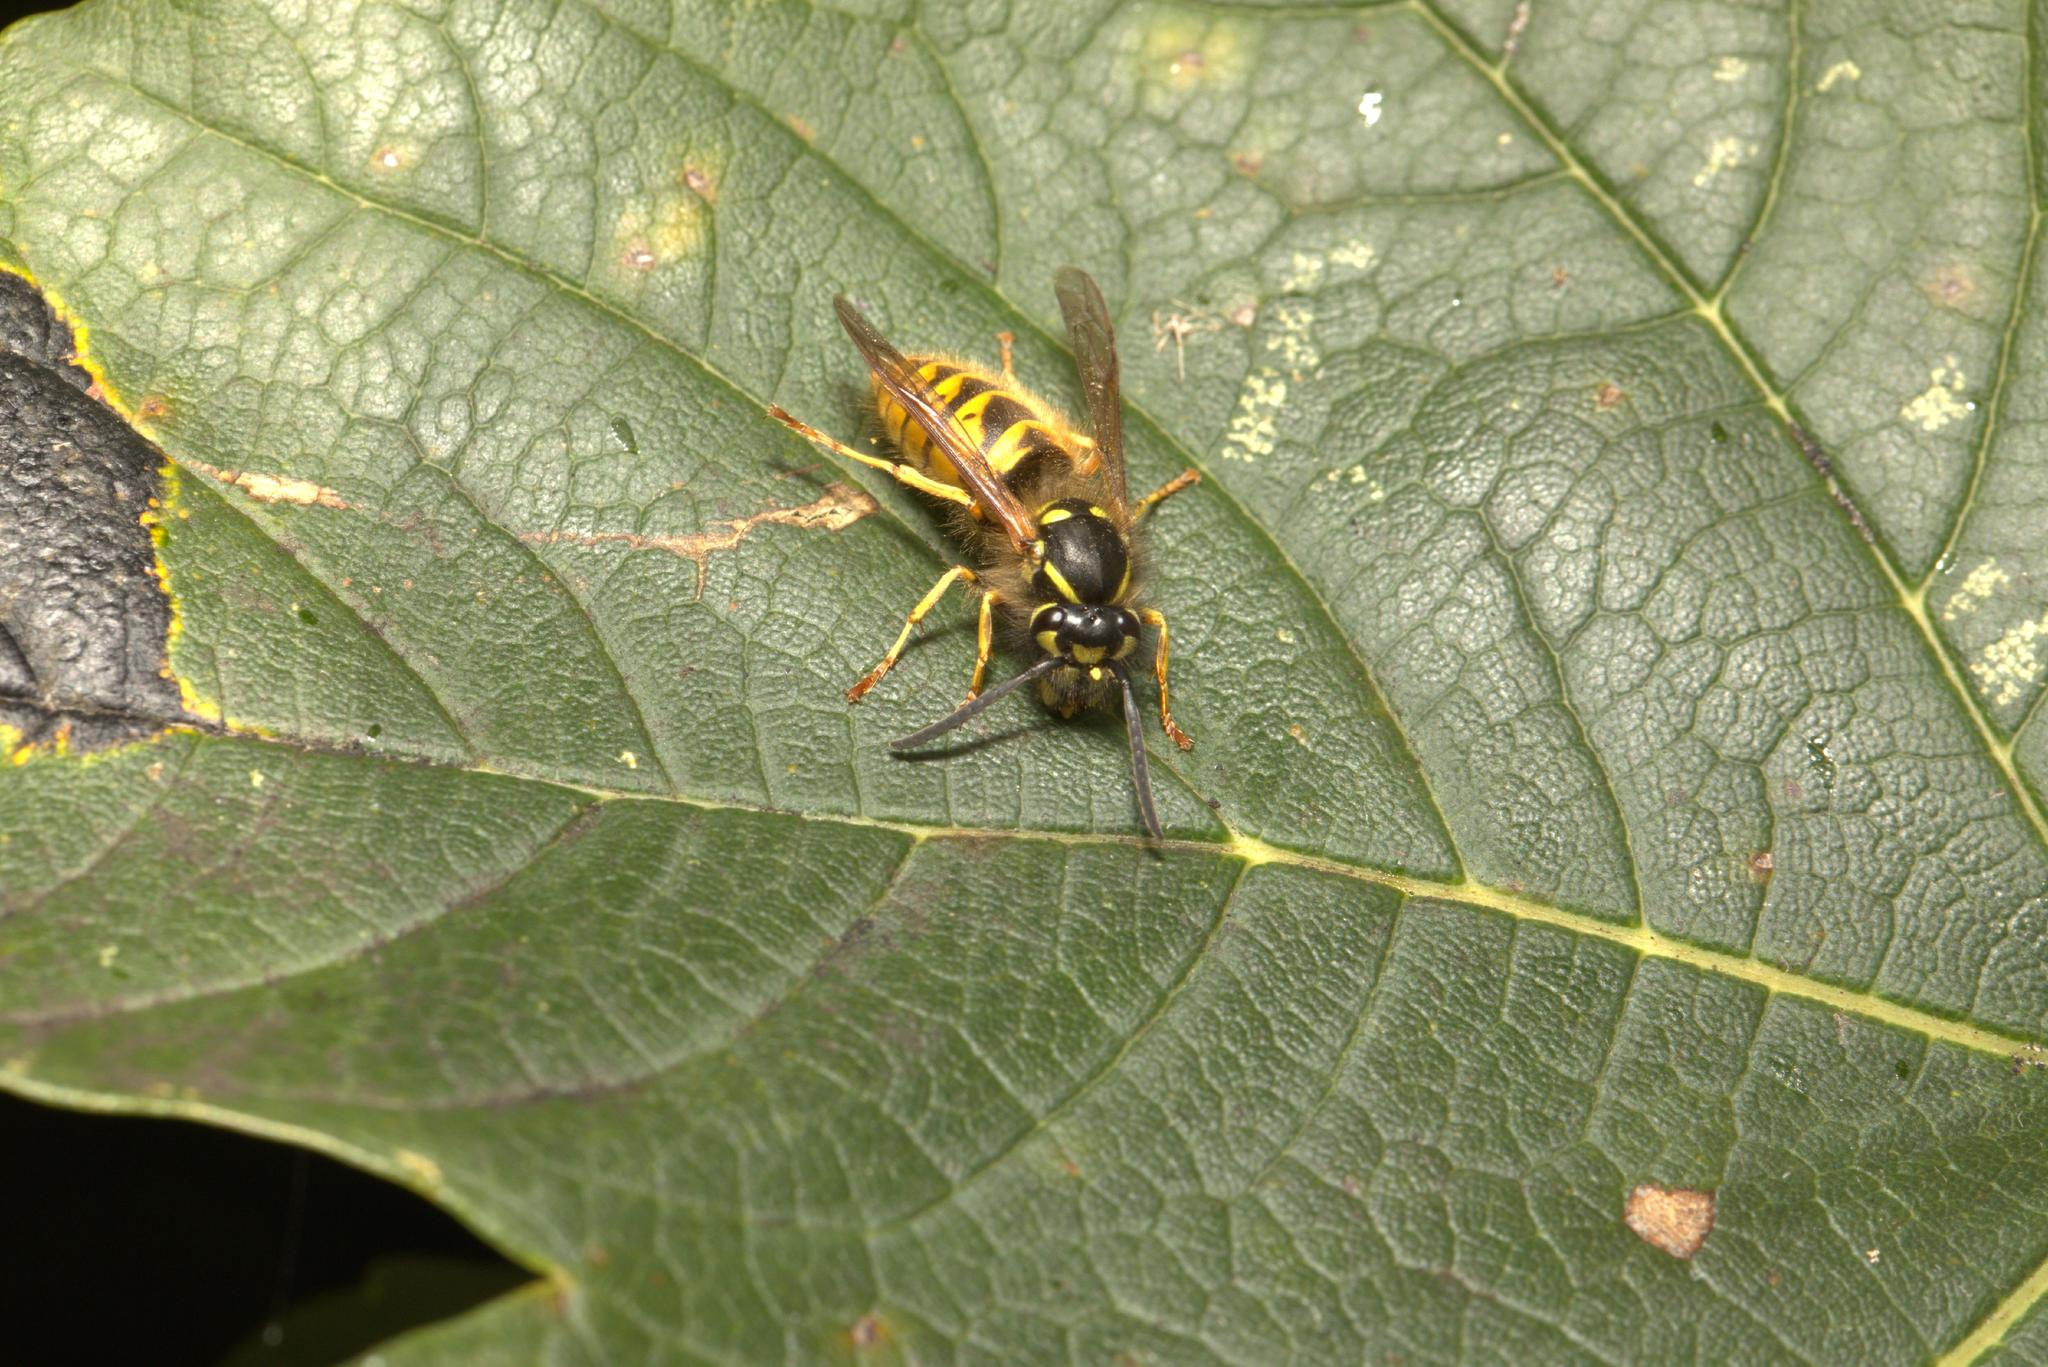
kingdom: Animalia
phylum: Arthropoda
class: Insecta
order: Hymenoptera
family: Vespidae
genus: Vespula
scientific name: Vespula vulgaris
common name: Common wasp
